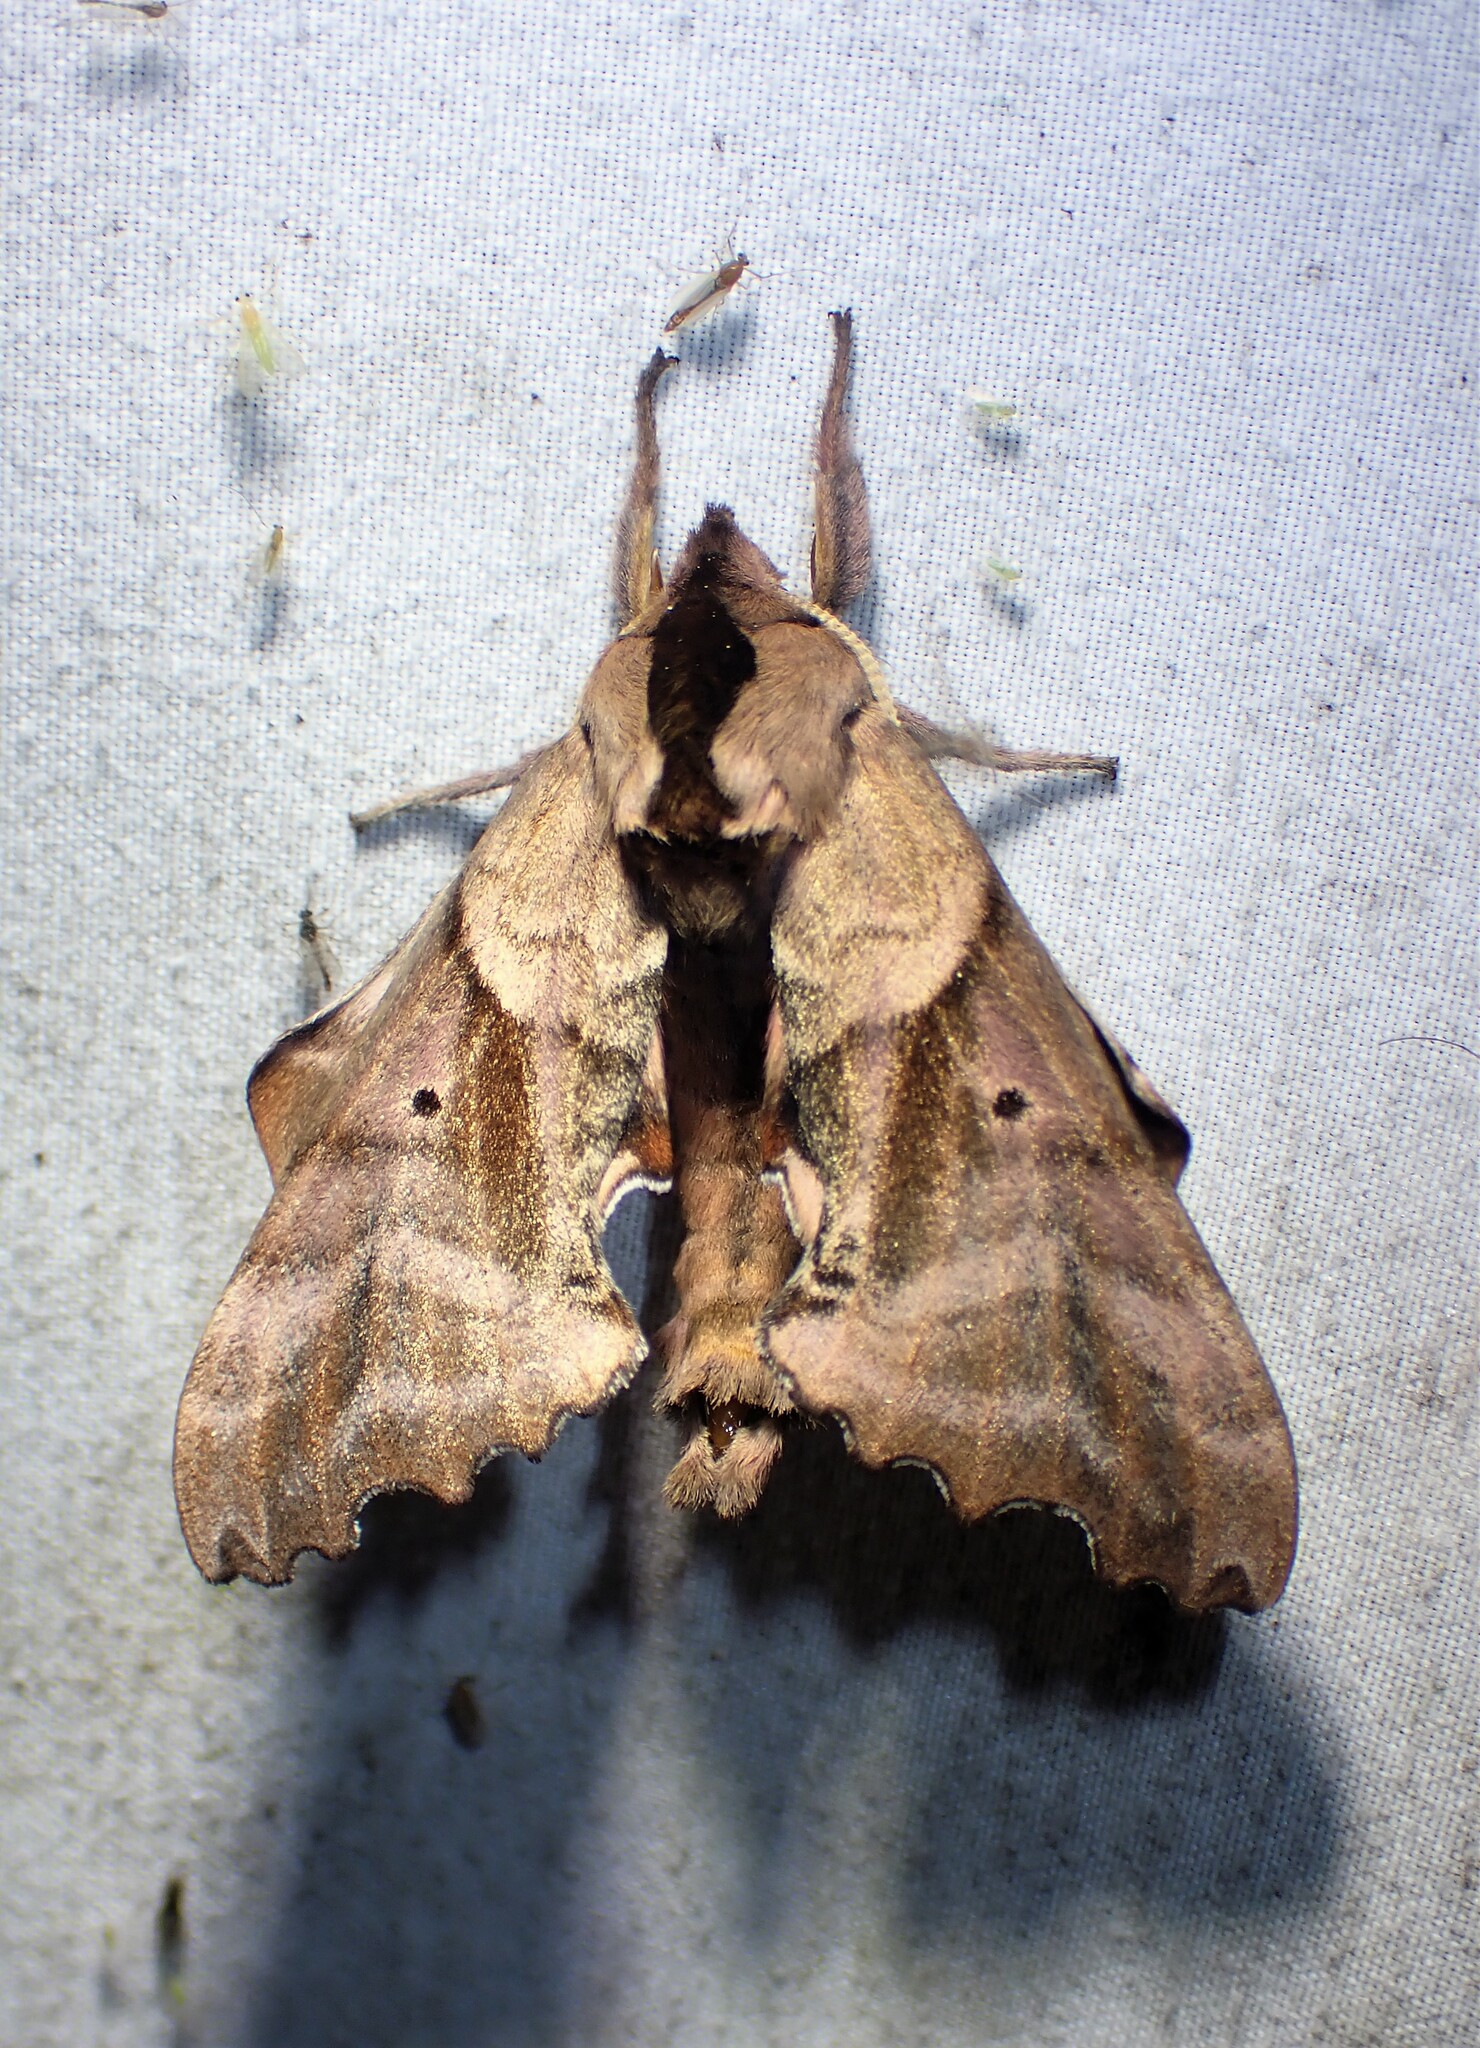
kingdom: Animalia
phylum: Arthropoda
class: Insecta
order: Lepidoptera
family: Sphingidae
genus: Paonias
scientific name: Paonias excaecata
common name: Blind-eyed sphinx
